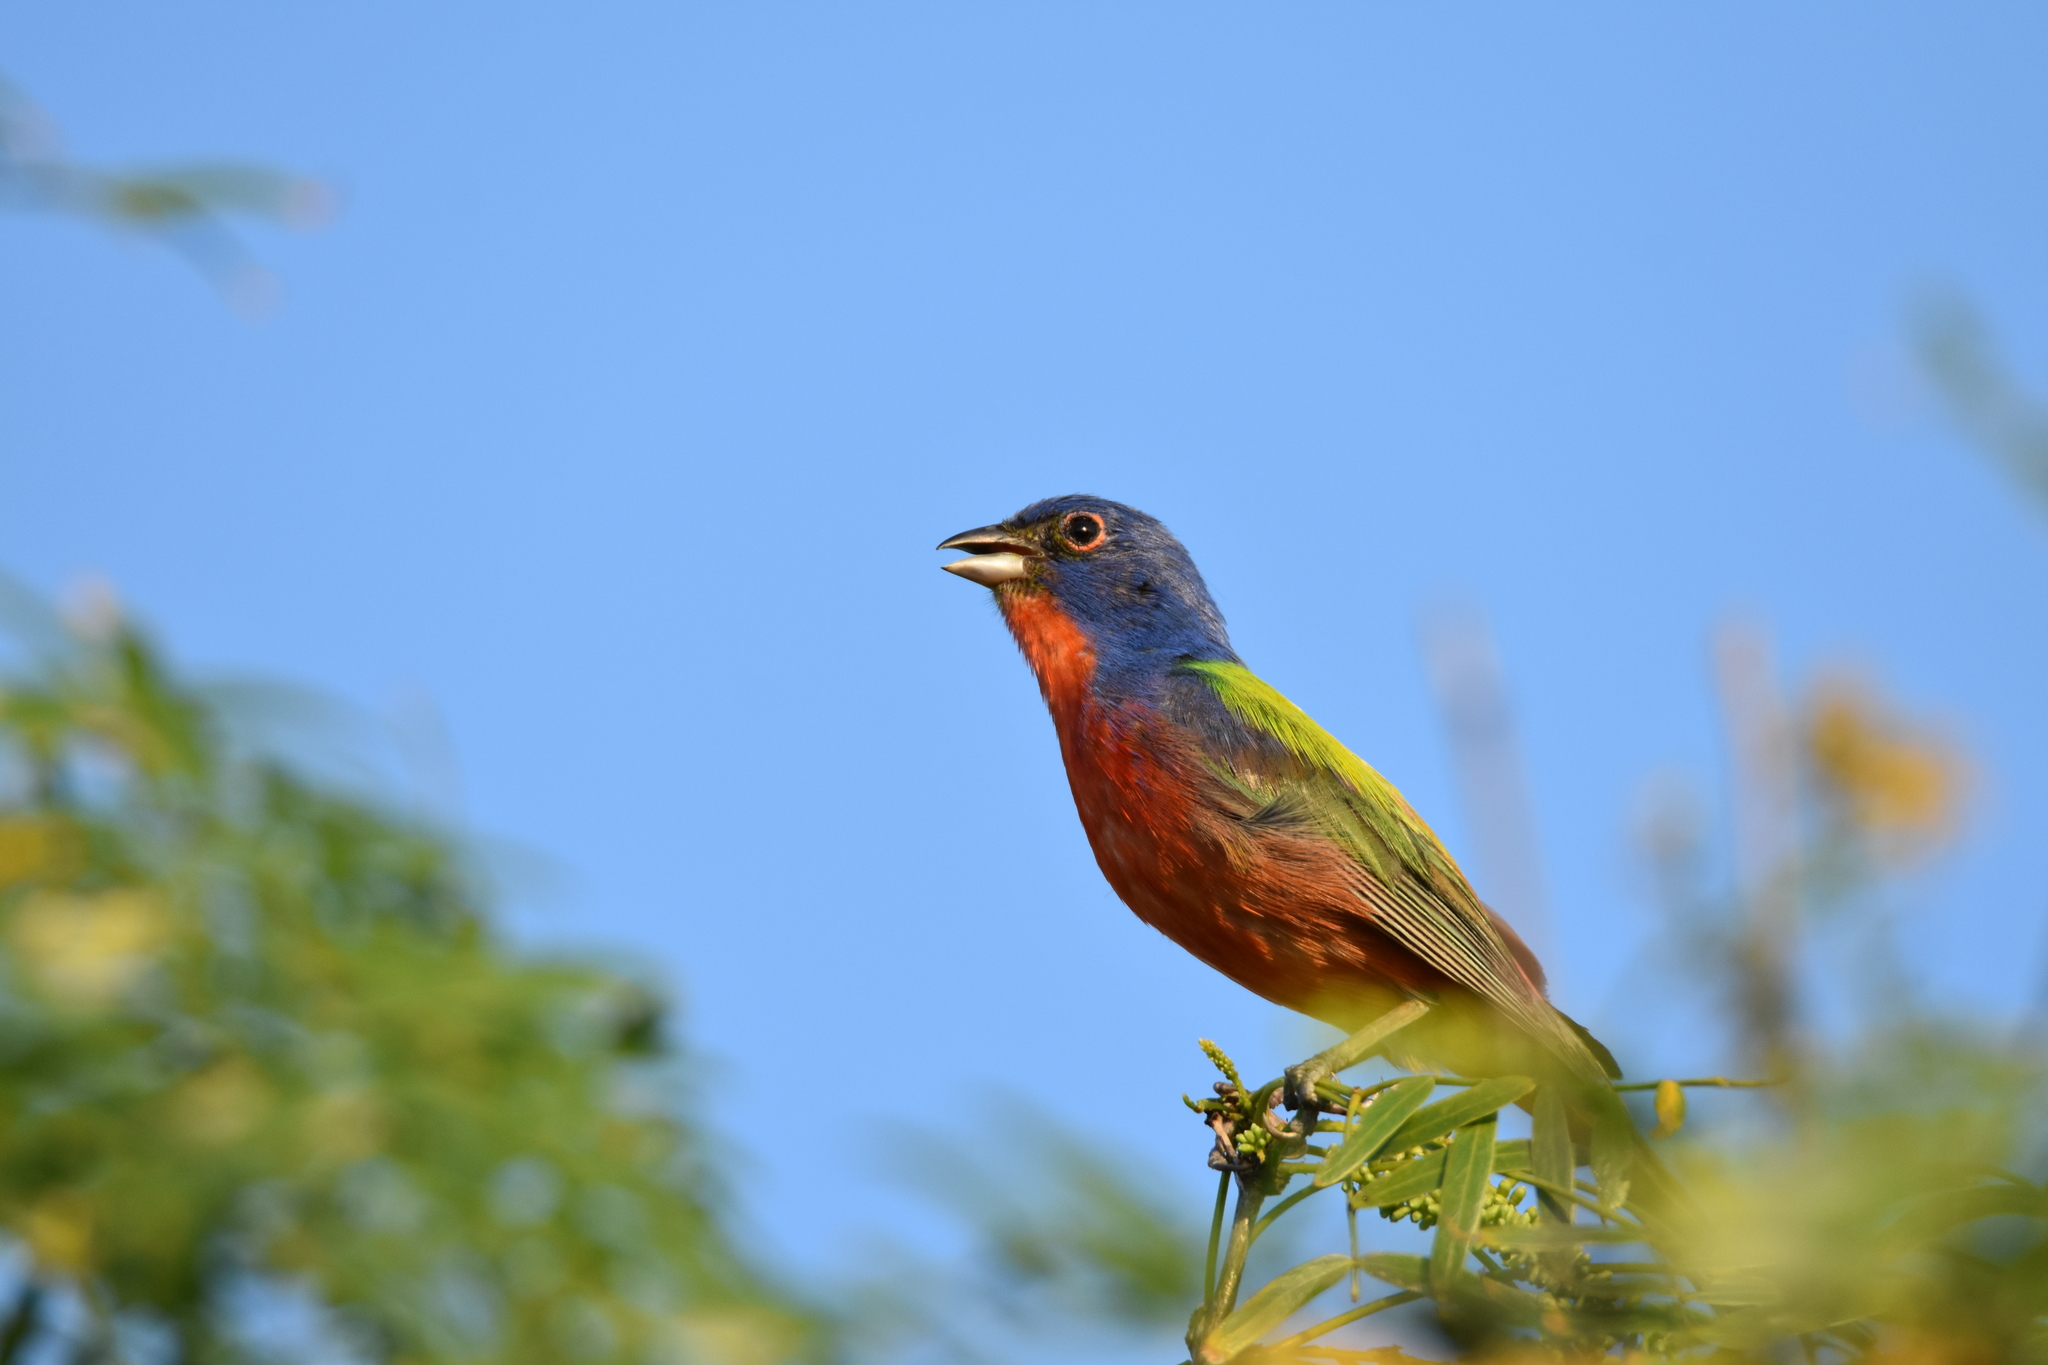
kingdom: Animalia
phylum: Chordata
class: Aves
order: Passeriformes
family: Cardinalidae
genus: Passerina
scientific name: Passerina ciris
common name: Painted bunting
